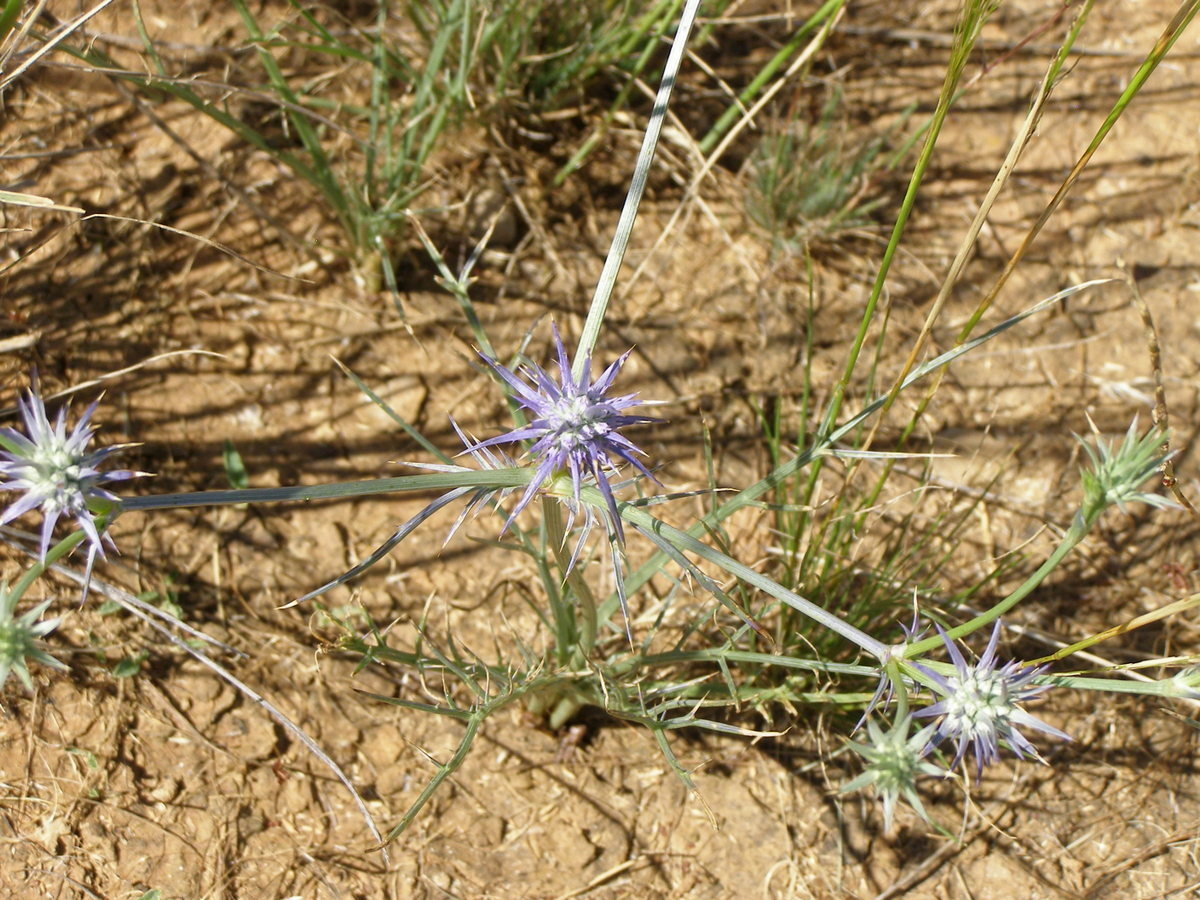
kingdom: Plantae
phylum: Tracheophyta
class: Magnoliopsida
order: Apiales
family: Apiaceae
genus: Eryngium
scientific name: Eryngium ovinum
